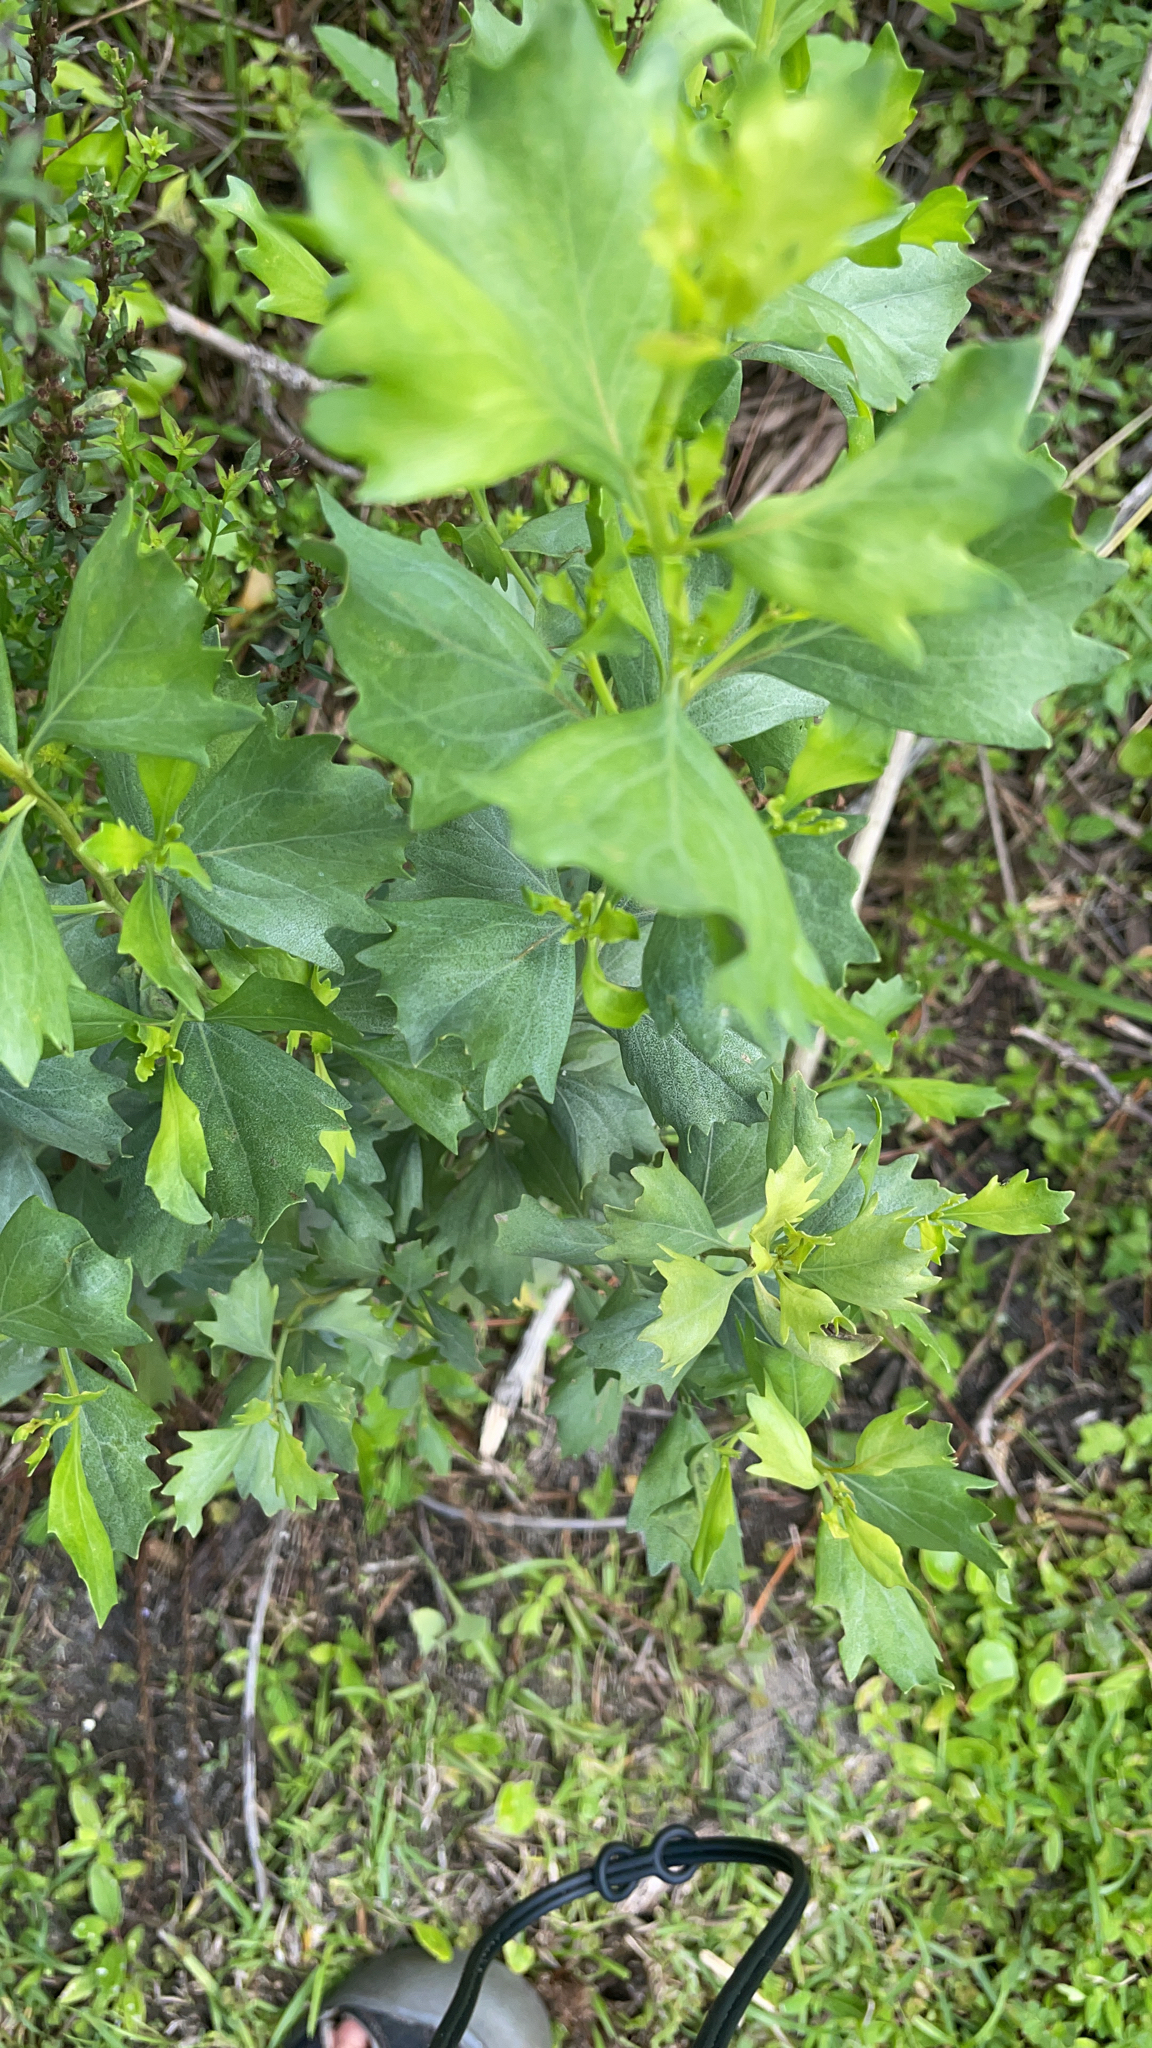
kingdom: Plantae
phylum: Tracheophyta
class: Magnoliopsida
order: Asterales
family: Asteraceae
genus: Baccharis
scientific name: Baccharis halimifolia
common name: Eastern baccharis
